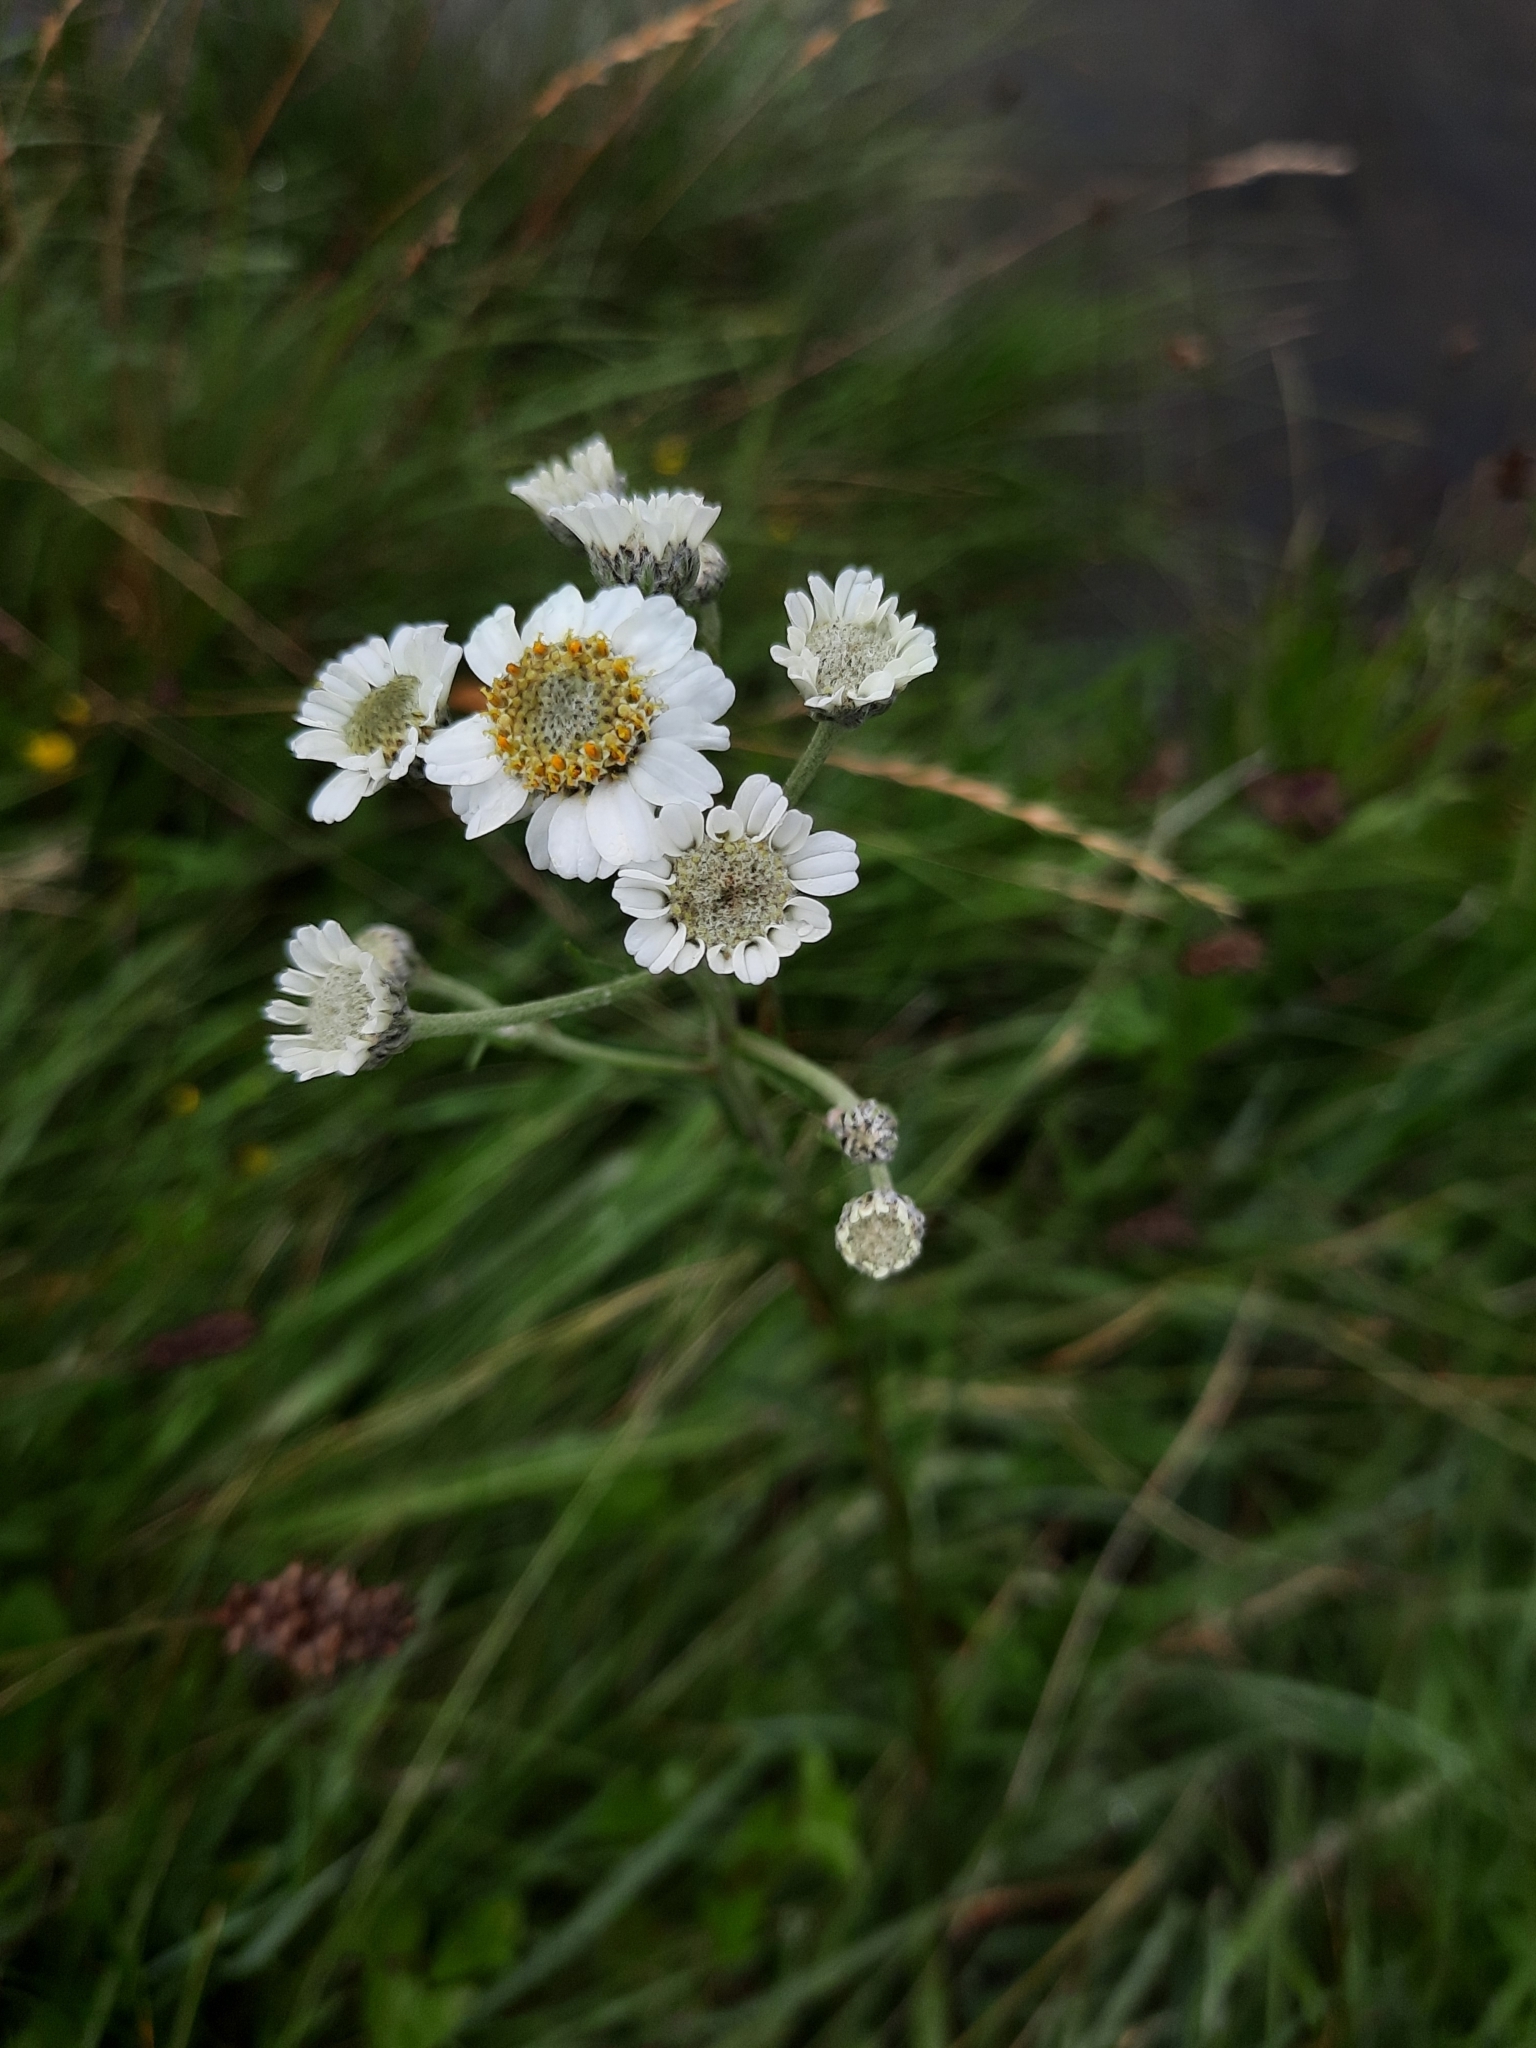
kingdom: Plantae
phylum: Tracheophyta
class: Magnoliopsida
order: Asterales
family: Asteraceae
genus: Achillea
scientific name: Achillea ptarmica
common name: Sneezeweed
